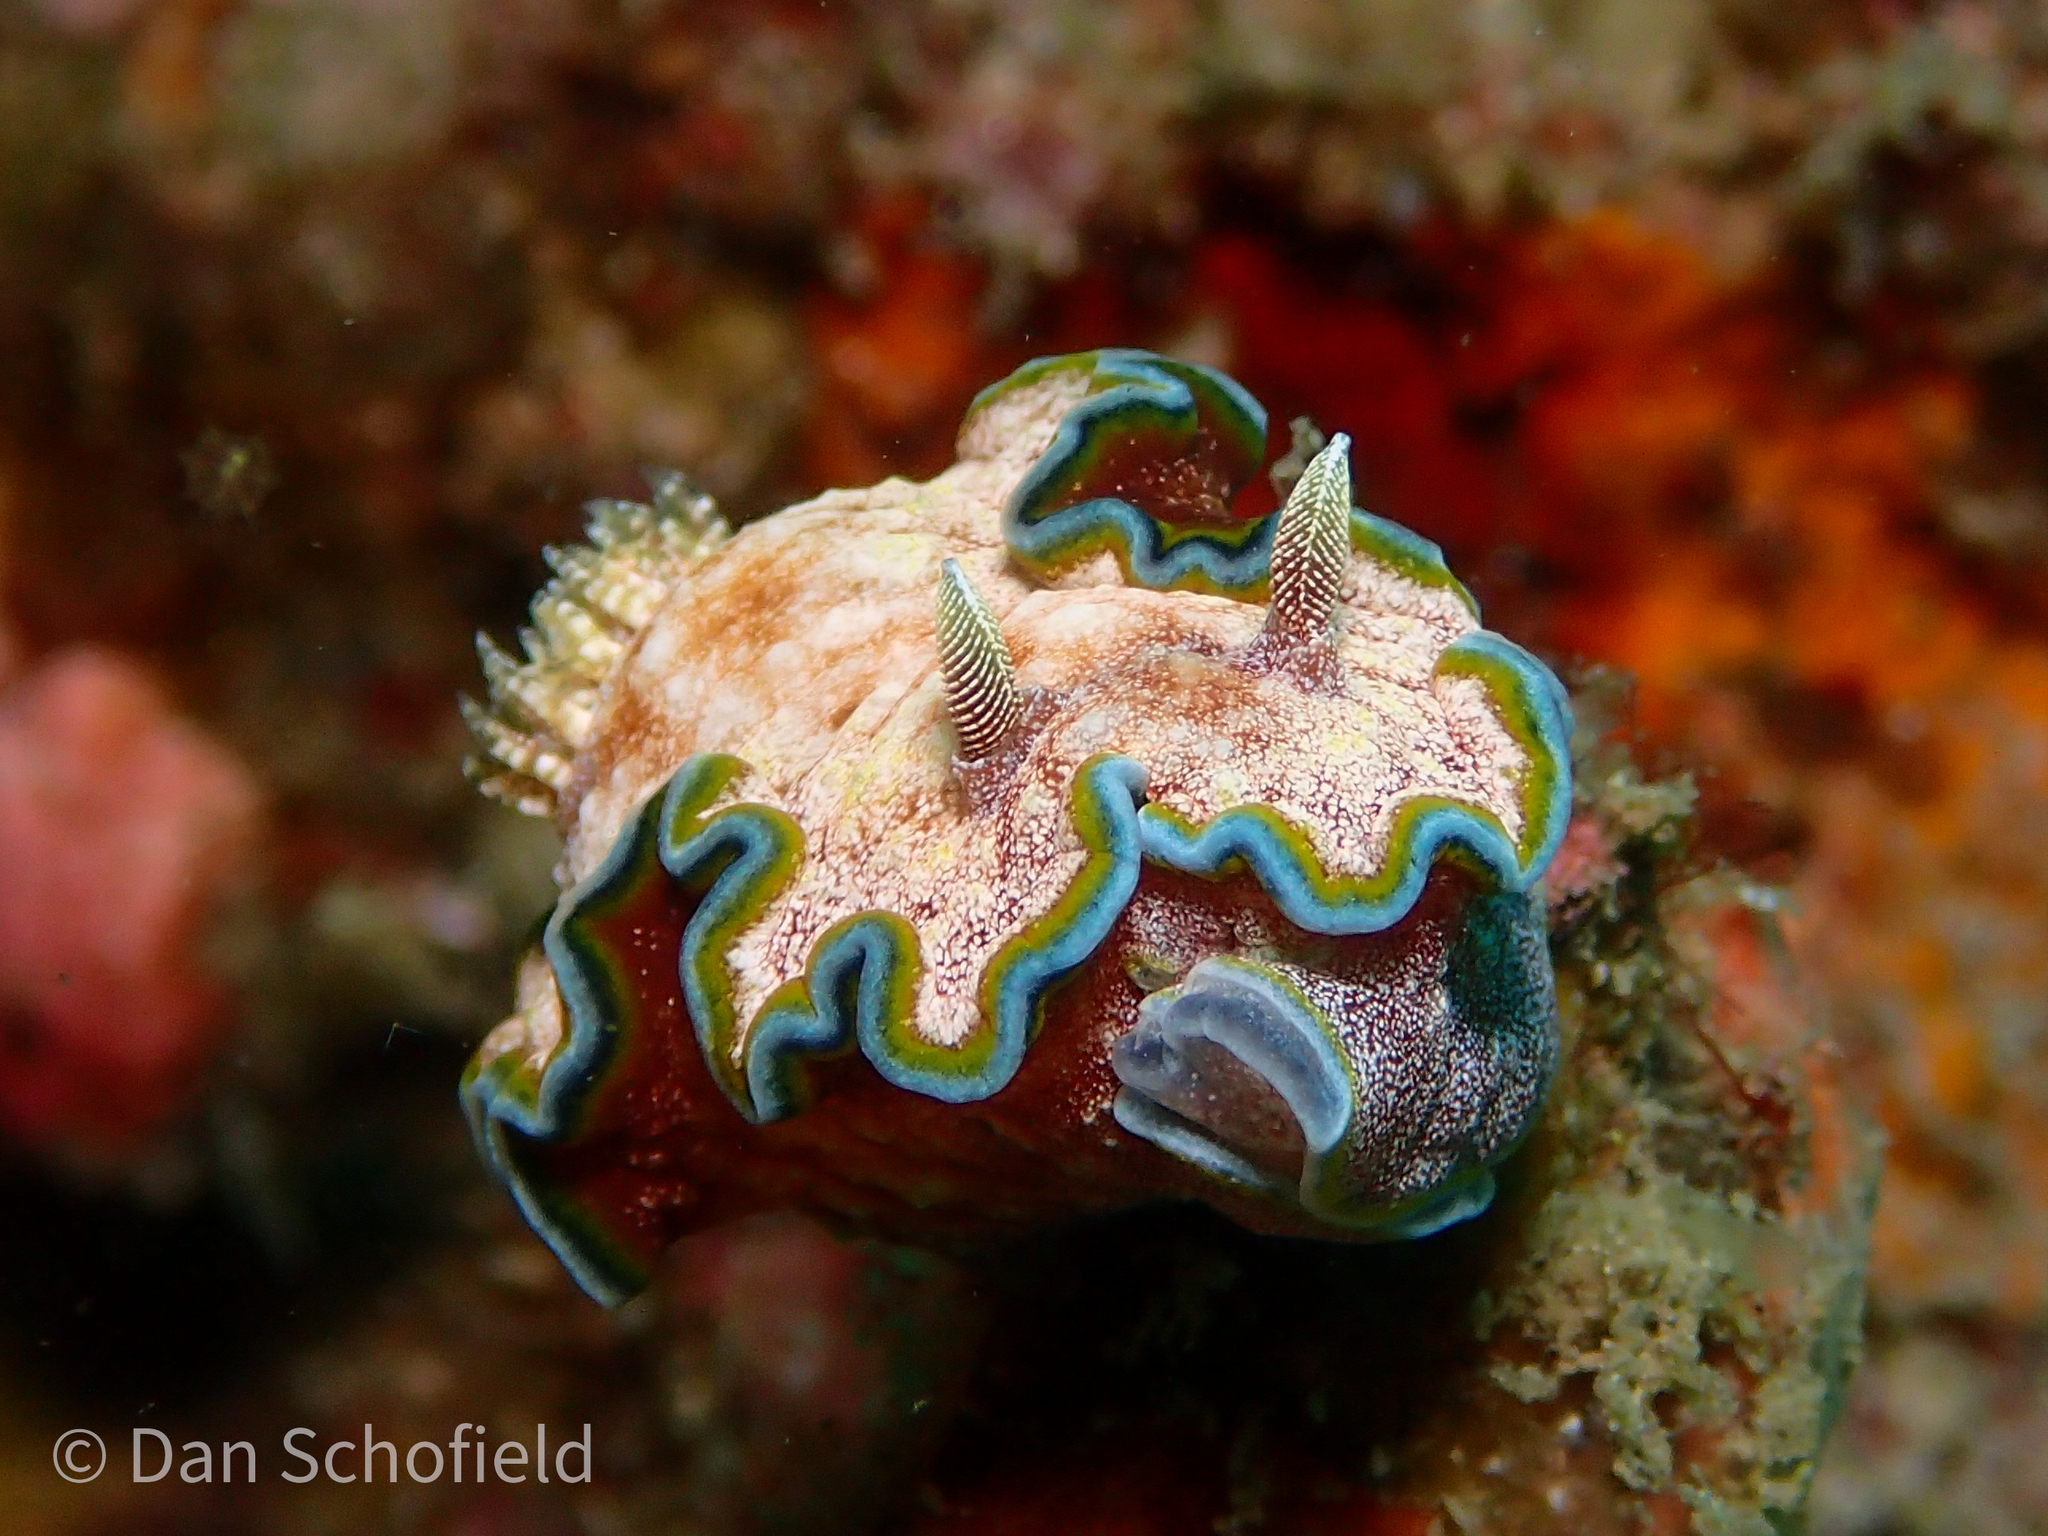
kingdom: Animalia
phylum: Mollusca
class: Gastropoda
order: Nudibranchia
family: Chromodorididae
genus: Glossodoris
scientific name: Glossodoris acosti
